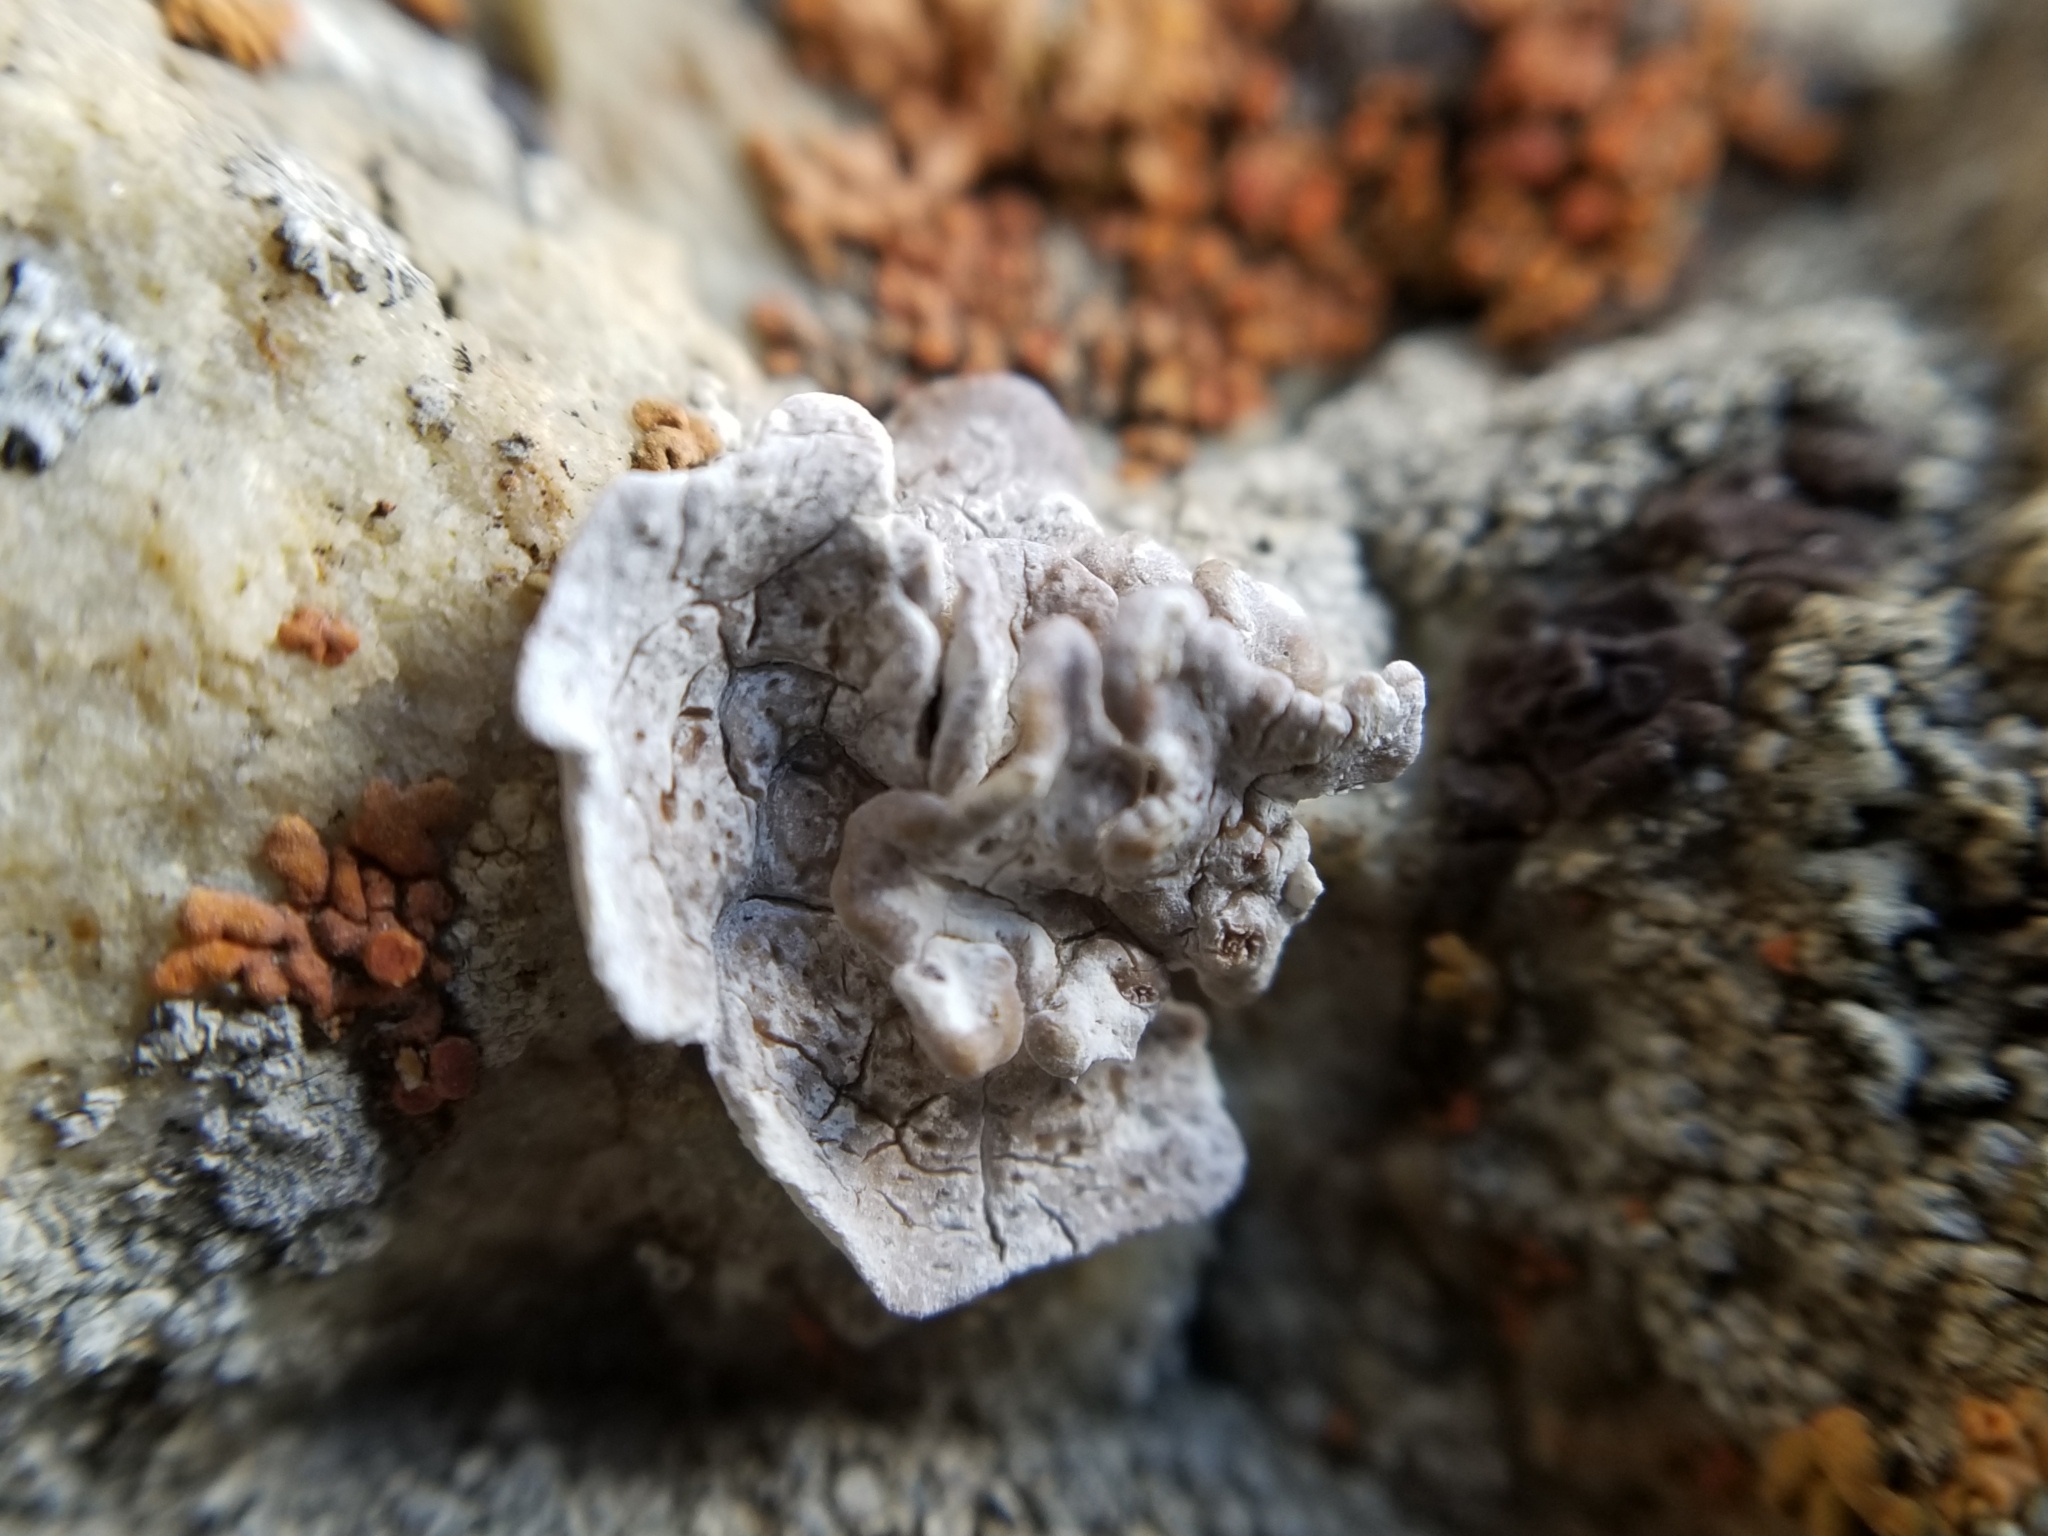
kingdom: Fungi
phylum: Ascomycota
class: Lecanoromycetes
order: Acarosporales
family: Acarosporaceae
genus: Glypholecia
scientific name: Glypholecia scabra
